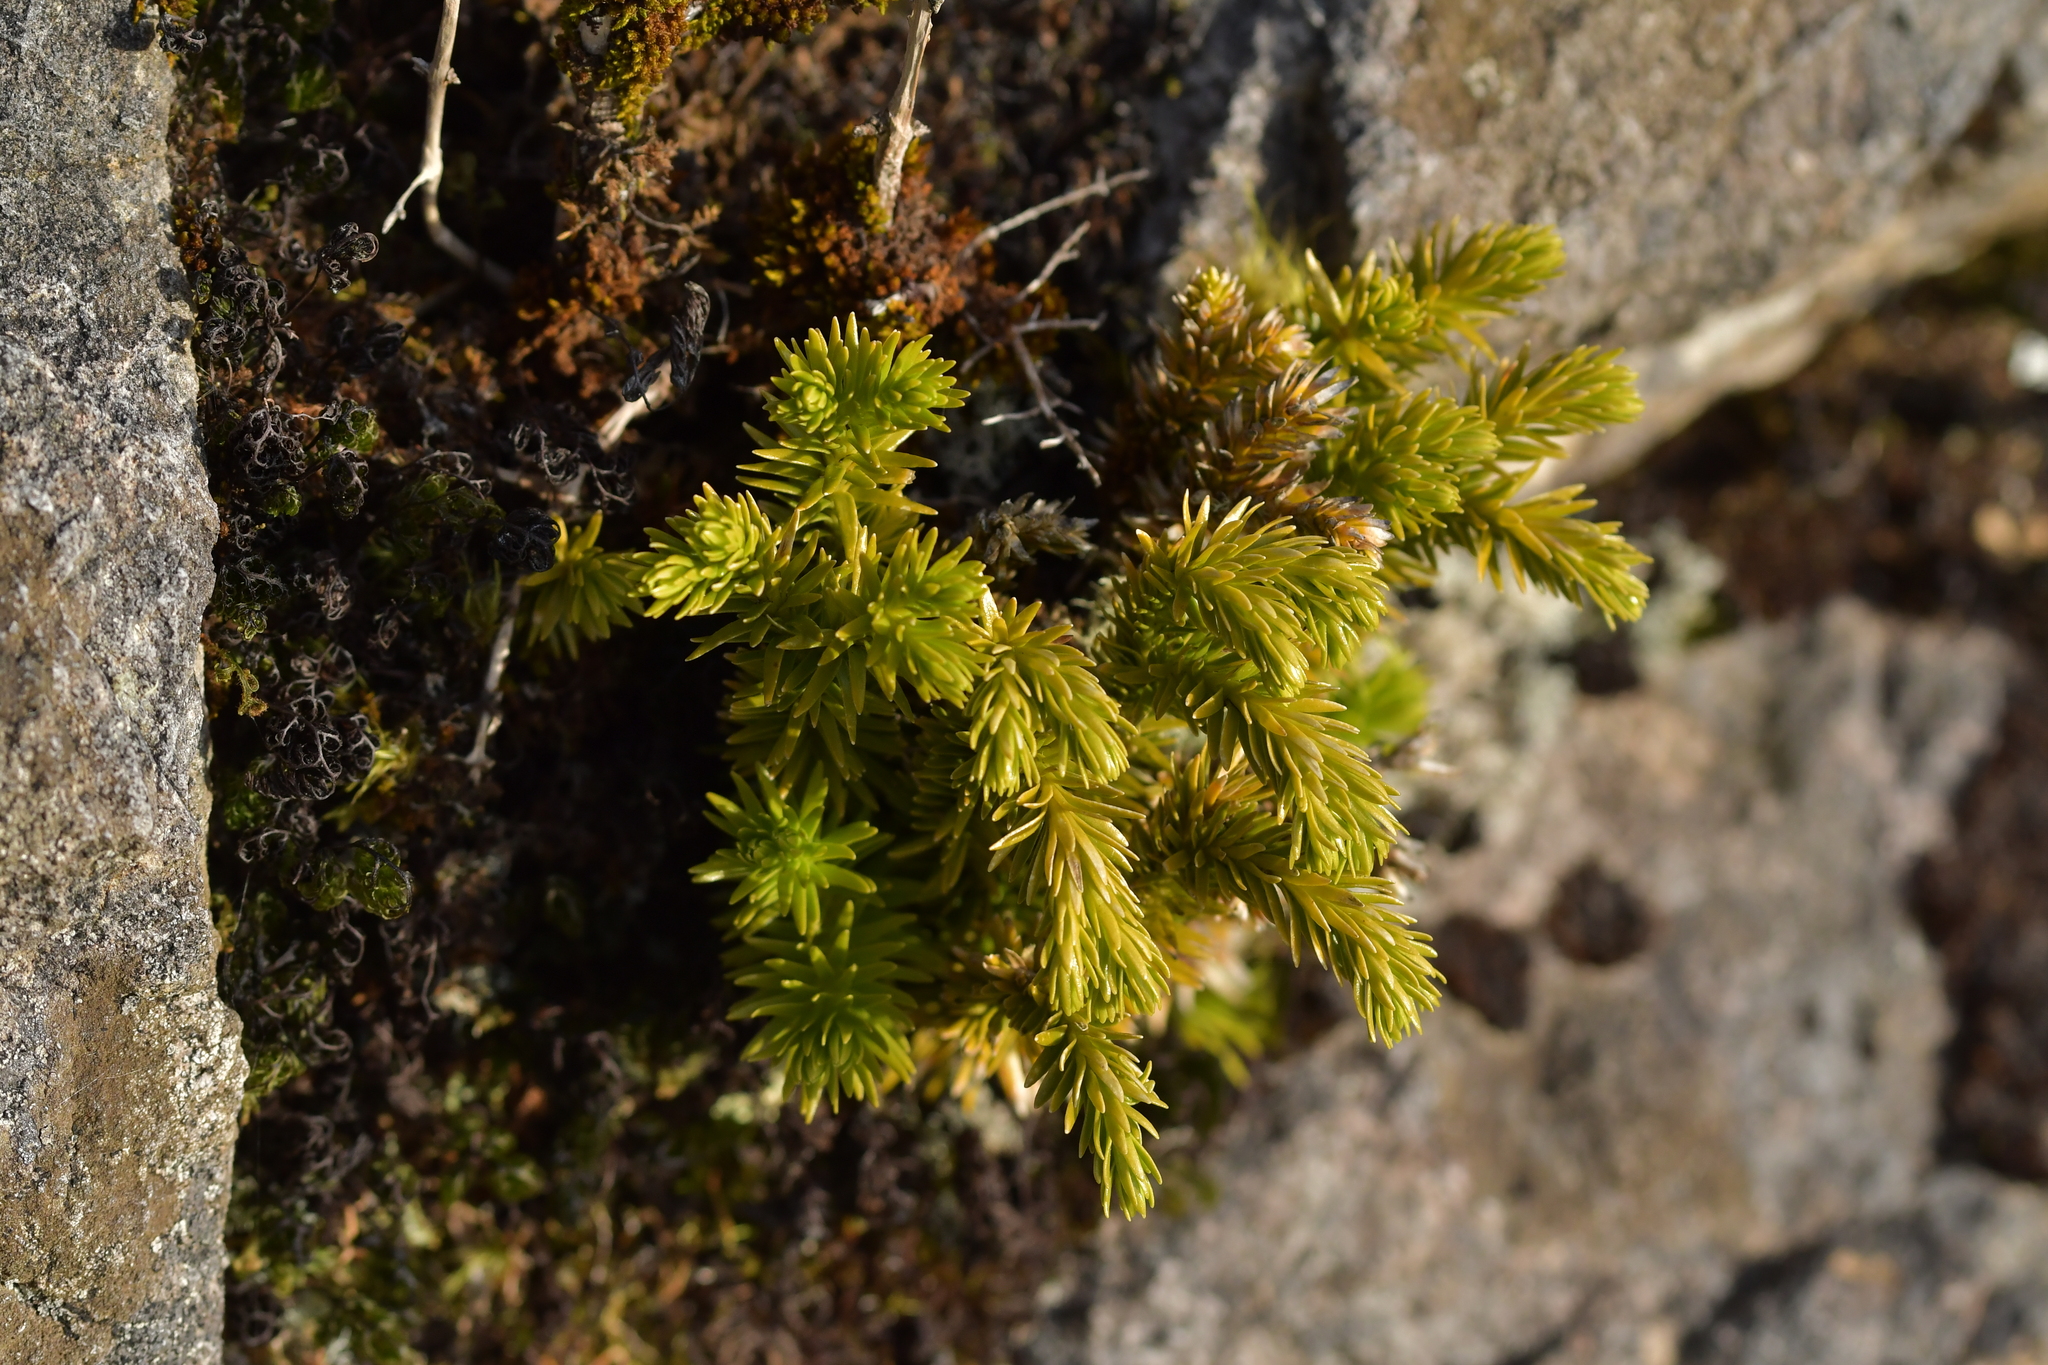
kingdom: Plantae
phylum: Tracheophyta
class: Lycopodiopsida
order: Lycopodiales
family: Lycopodiaceae
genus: Phlegmariurus
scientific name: Phlegmariurus varius
